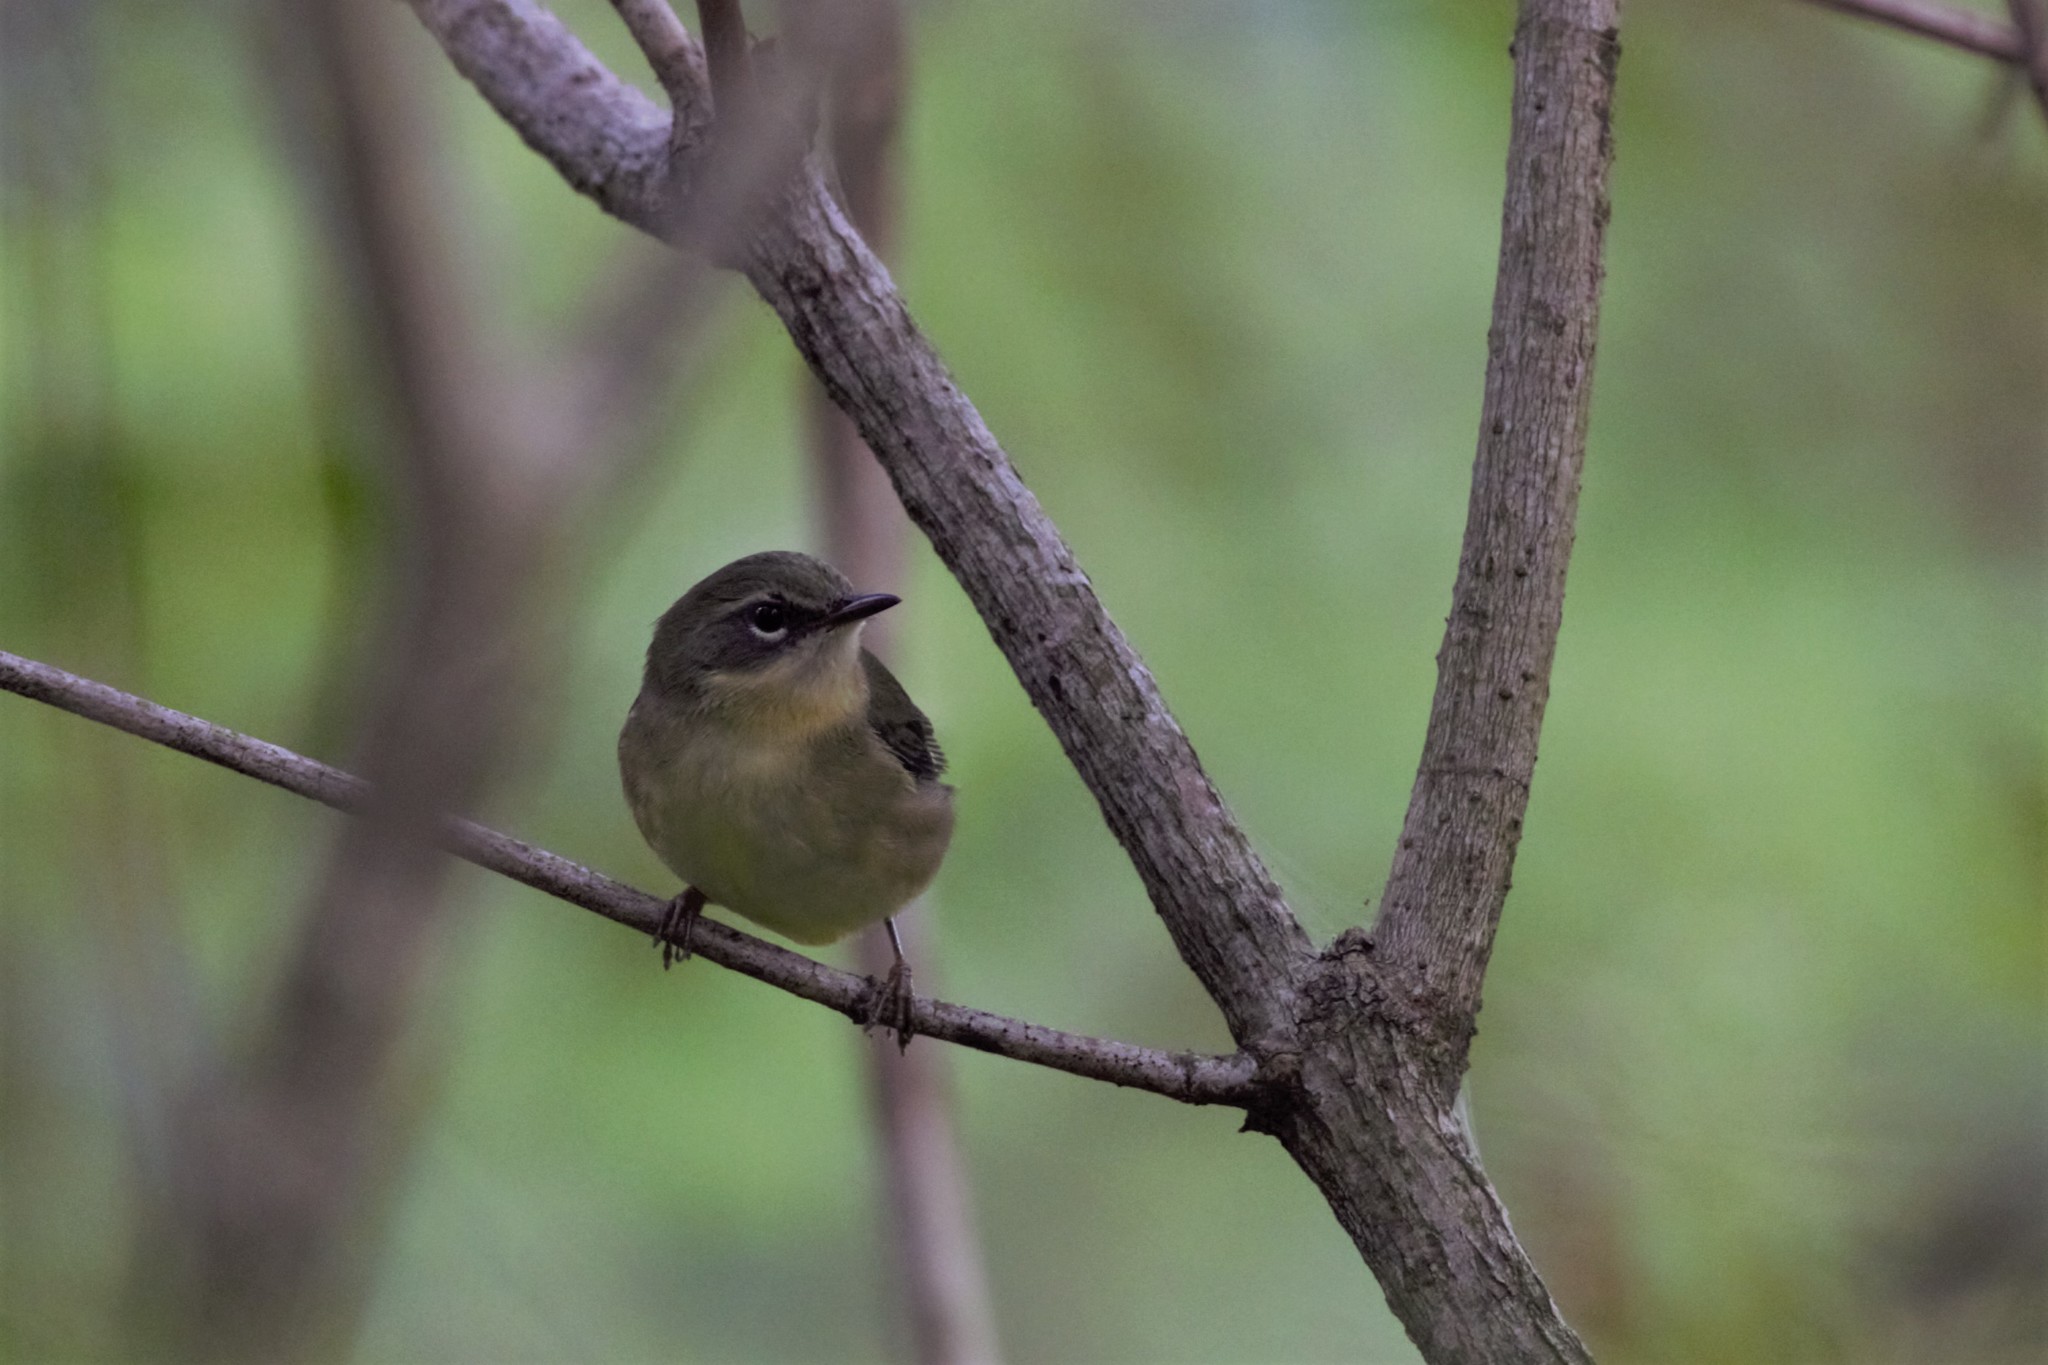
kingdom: Animalia
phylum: Chordata
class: Aves
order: Passeriformes
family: Parulidae
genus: Setophaga
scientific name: Setophaga caerulescens
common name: Black-throated blue warbler
